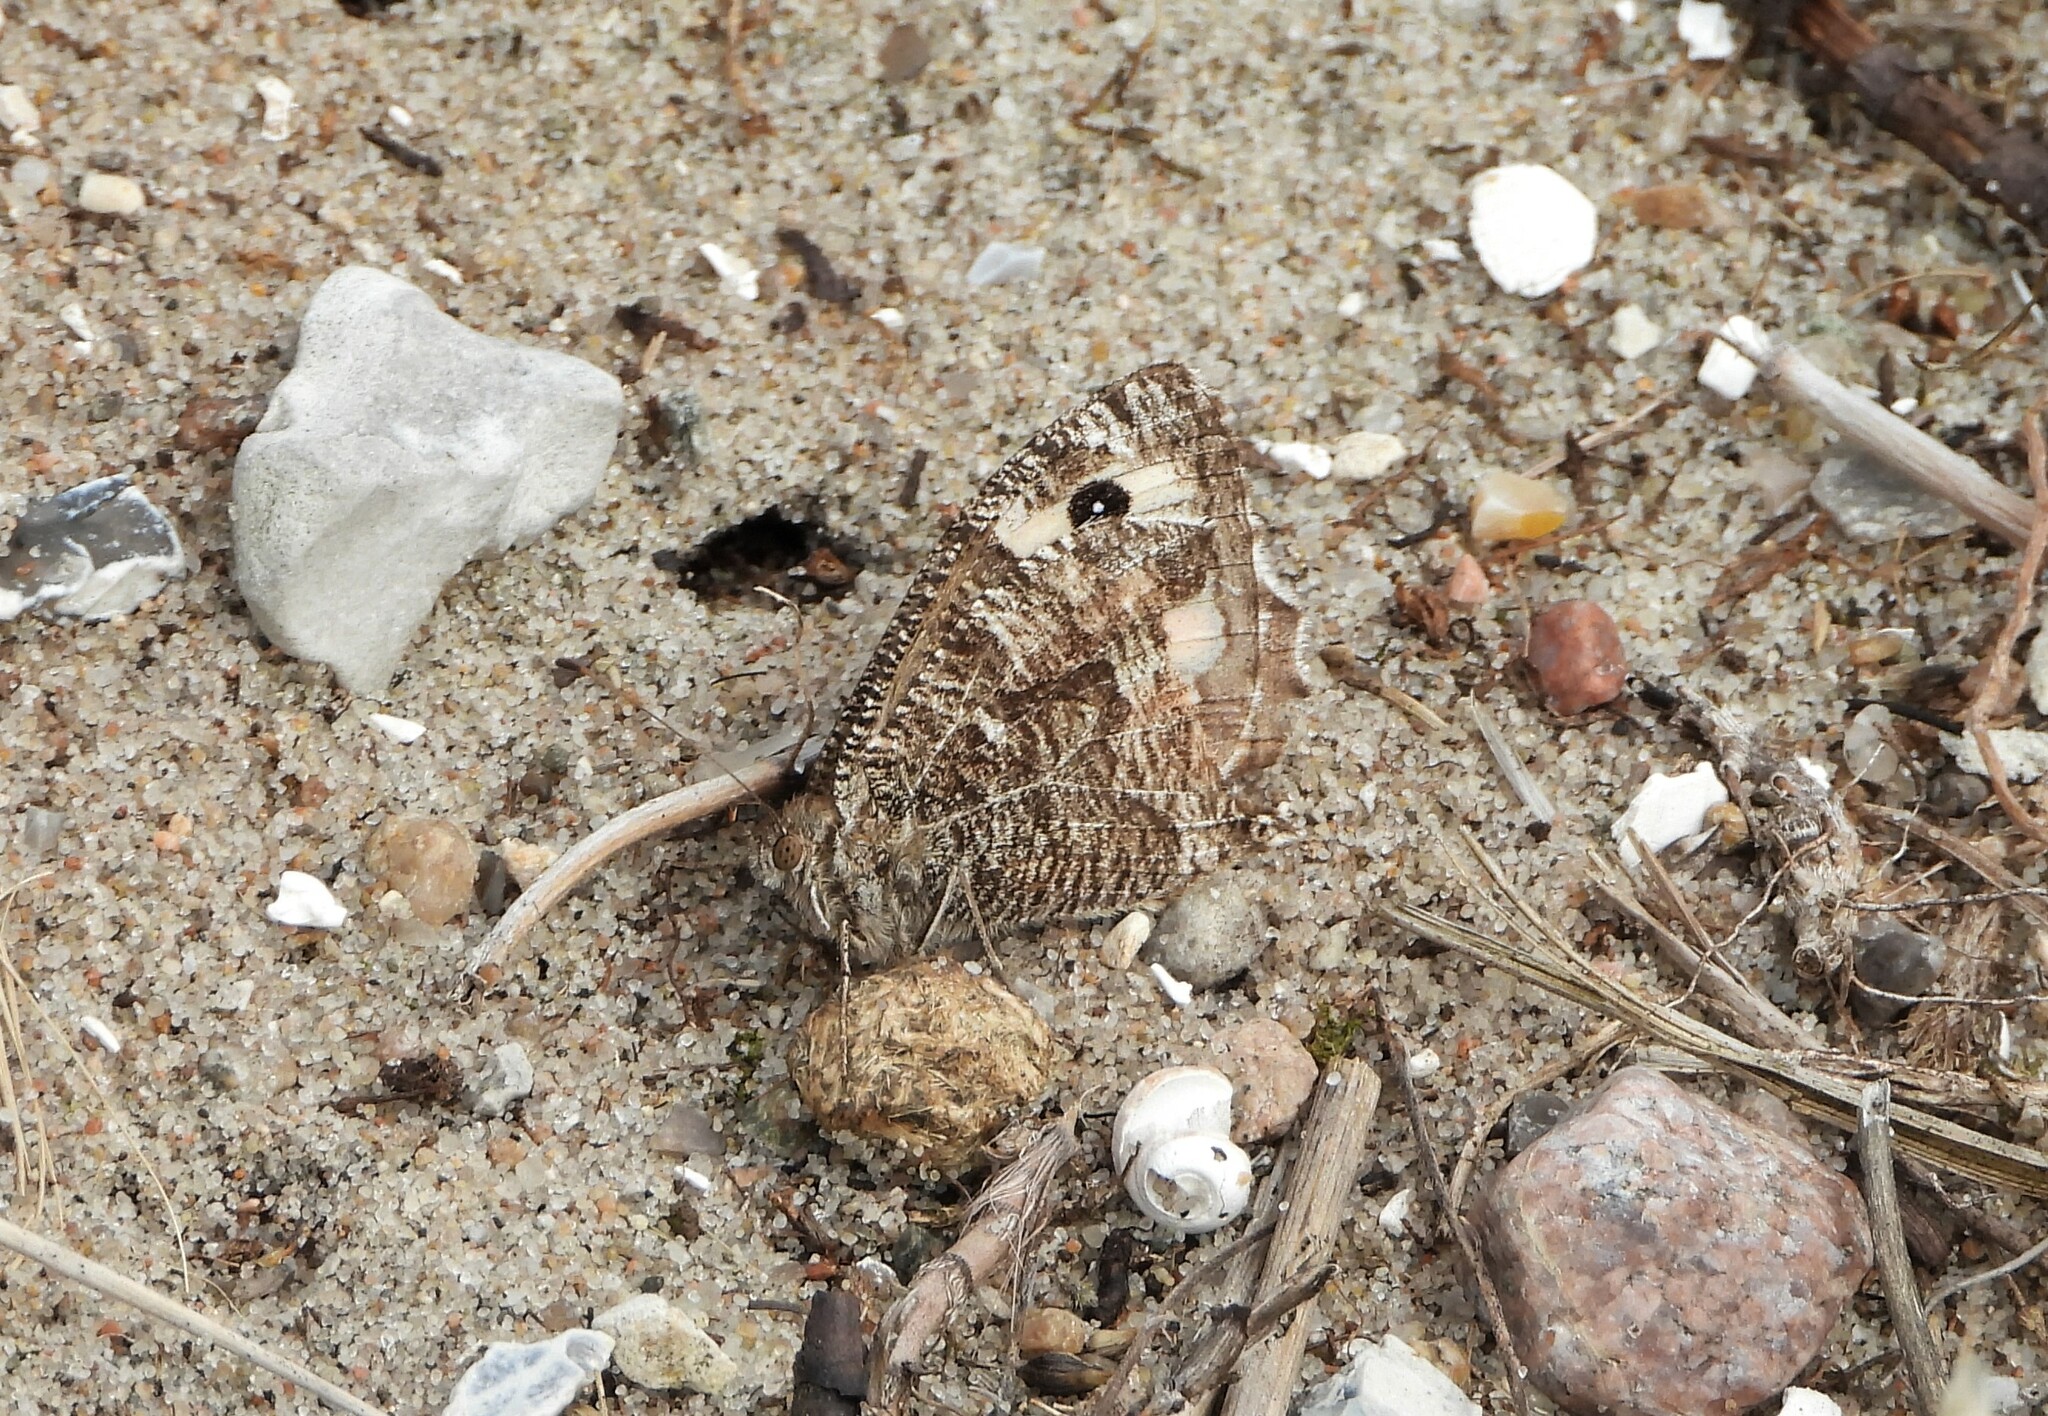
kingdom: Animalia
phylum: Arthropoda
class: Insecta
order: Lepidoptera
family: Nymphalidae
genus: Hipparchia
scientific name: Hipparchia semele
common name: Grayling
